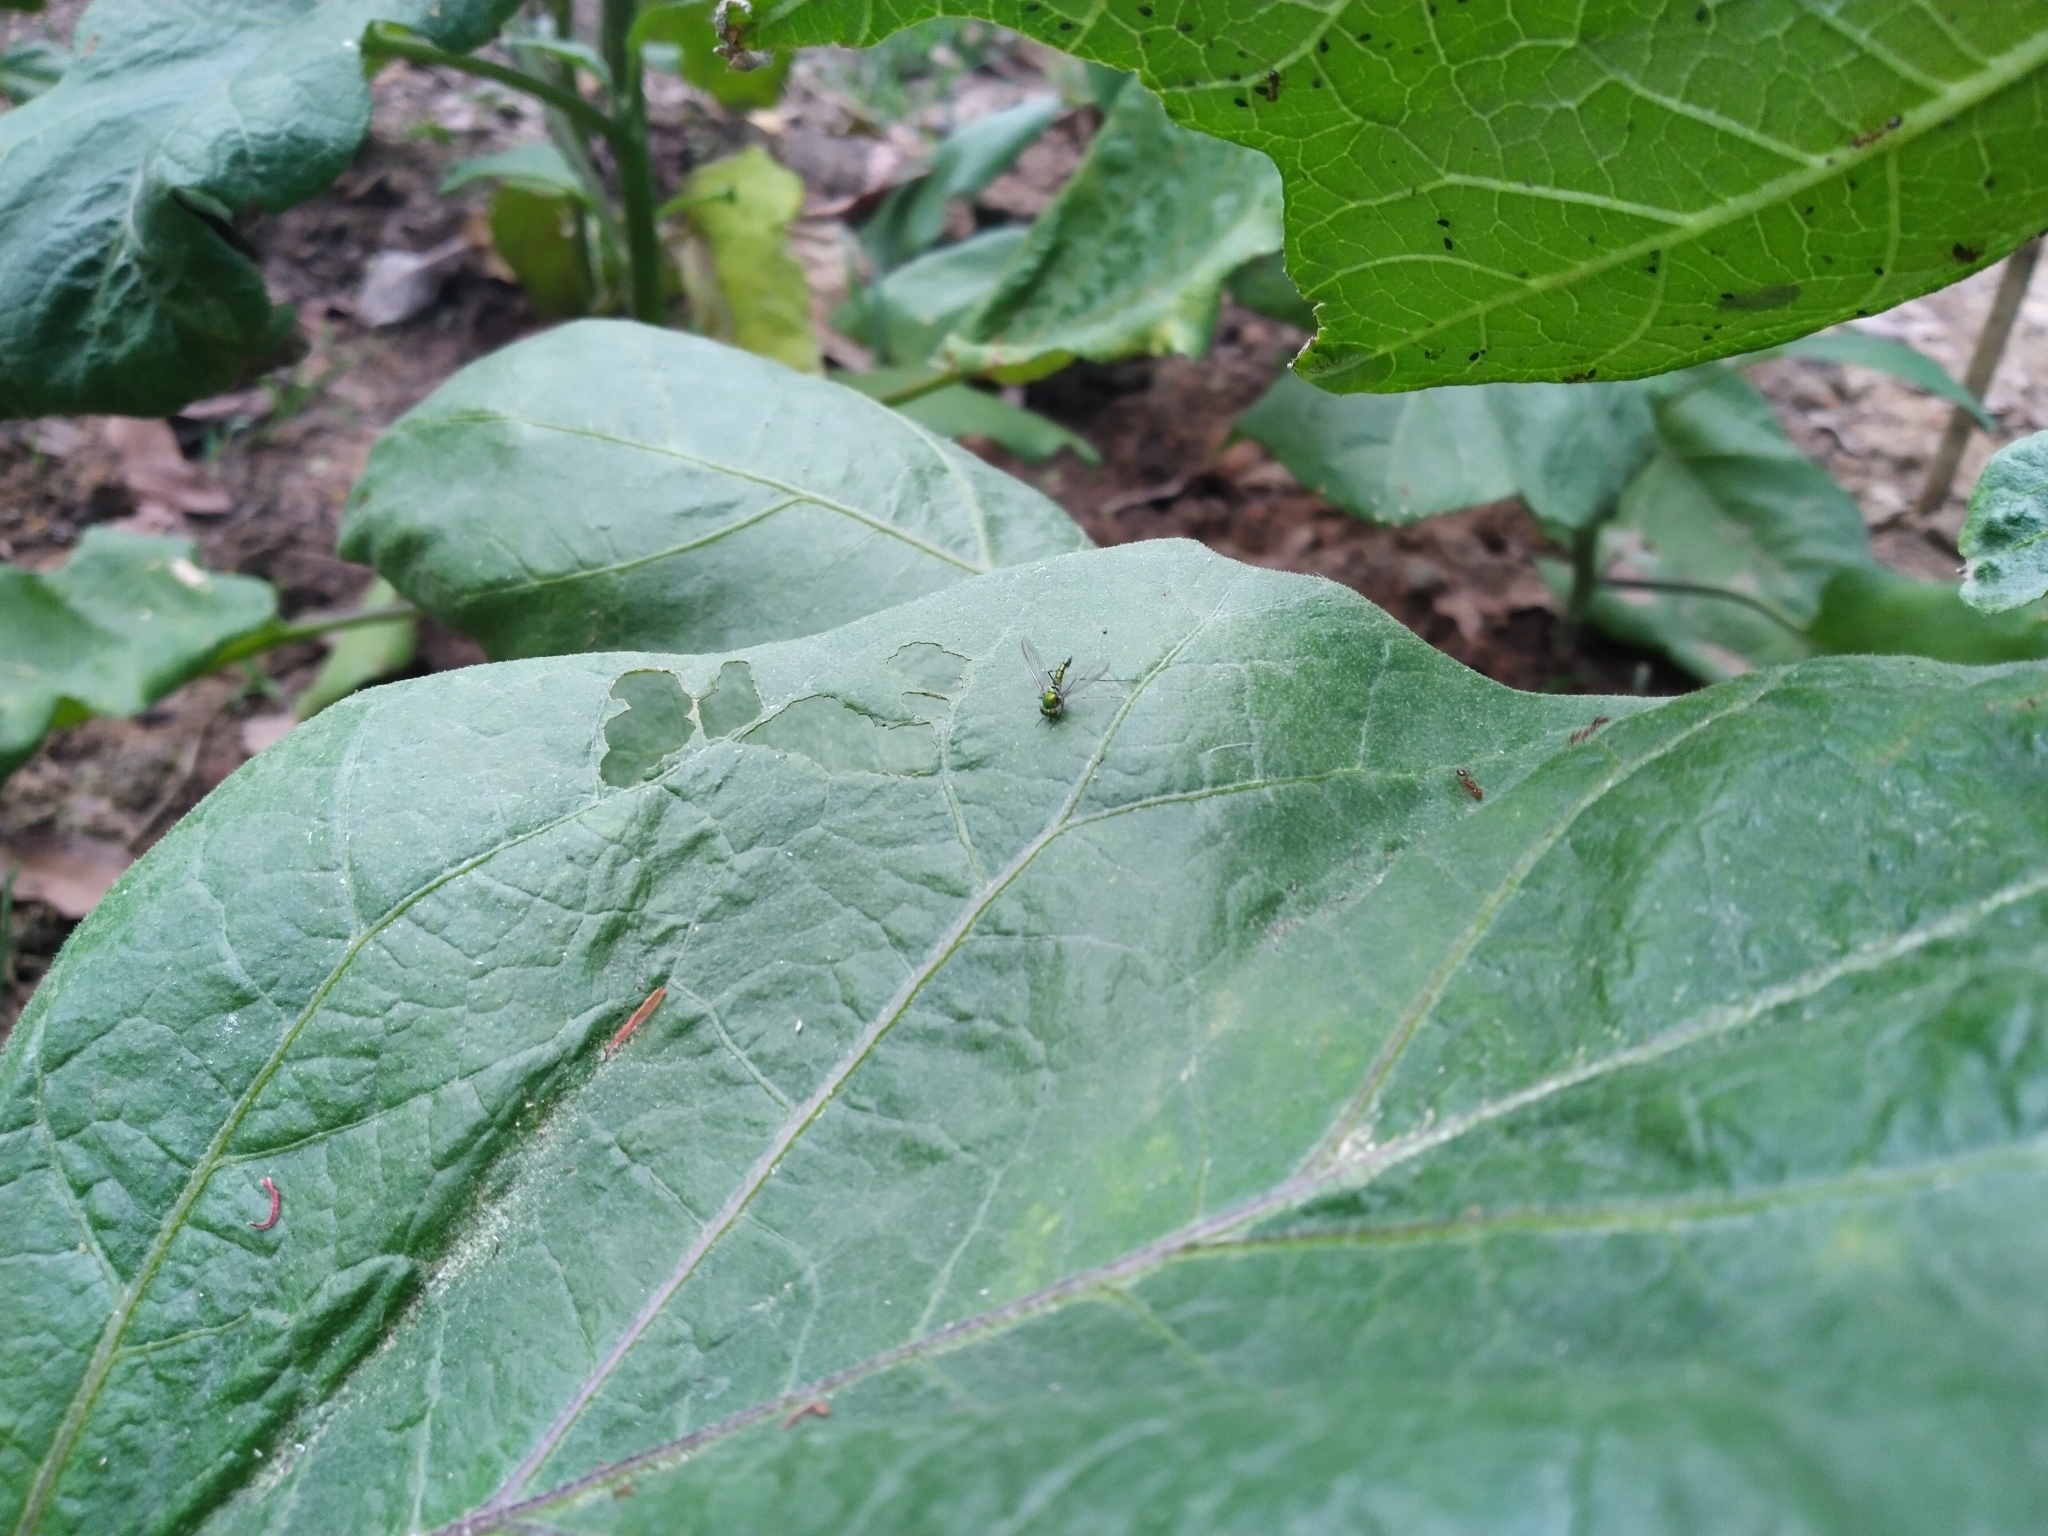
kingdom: Animalia
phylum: Arthropoda
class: Insecta
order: Diptera
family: Dolichopodidae
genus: Chrysosoma
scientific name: Chrysosoma leucopogon
